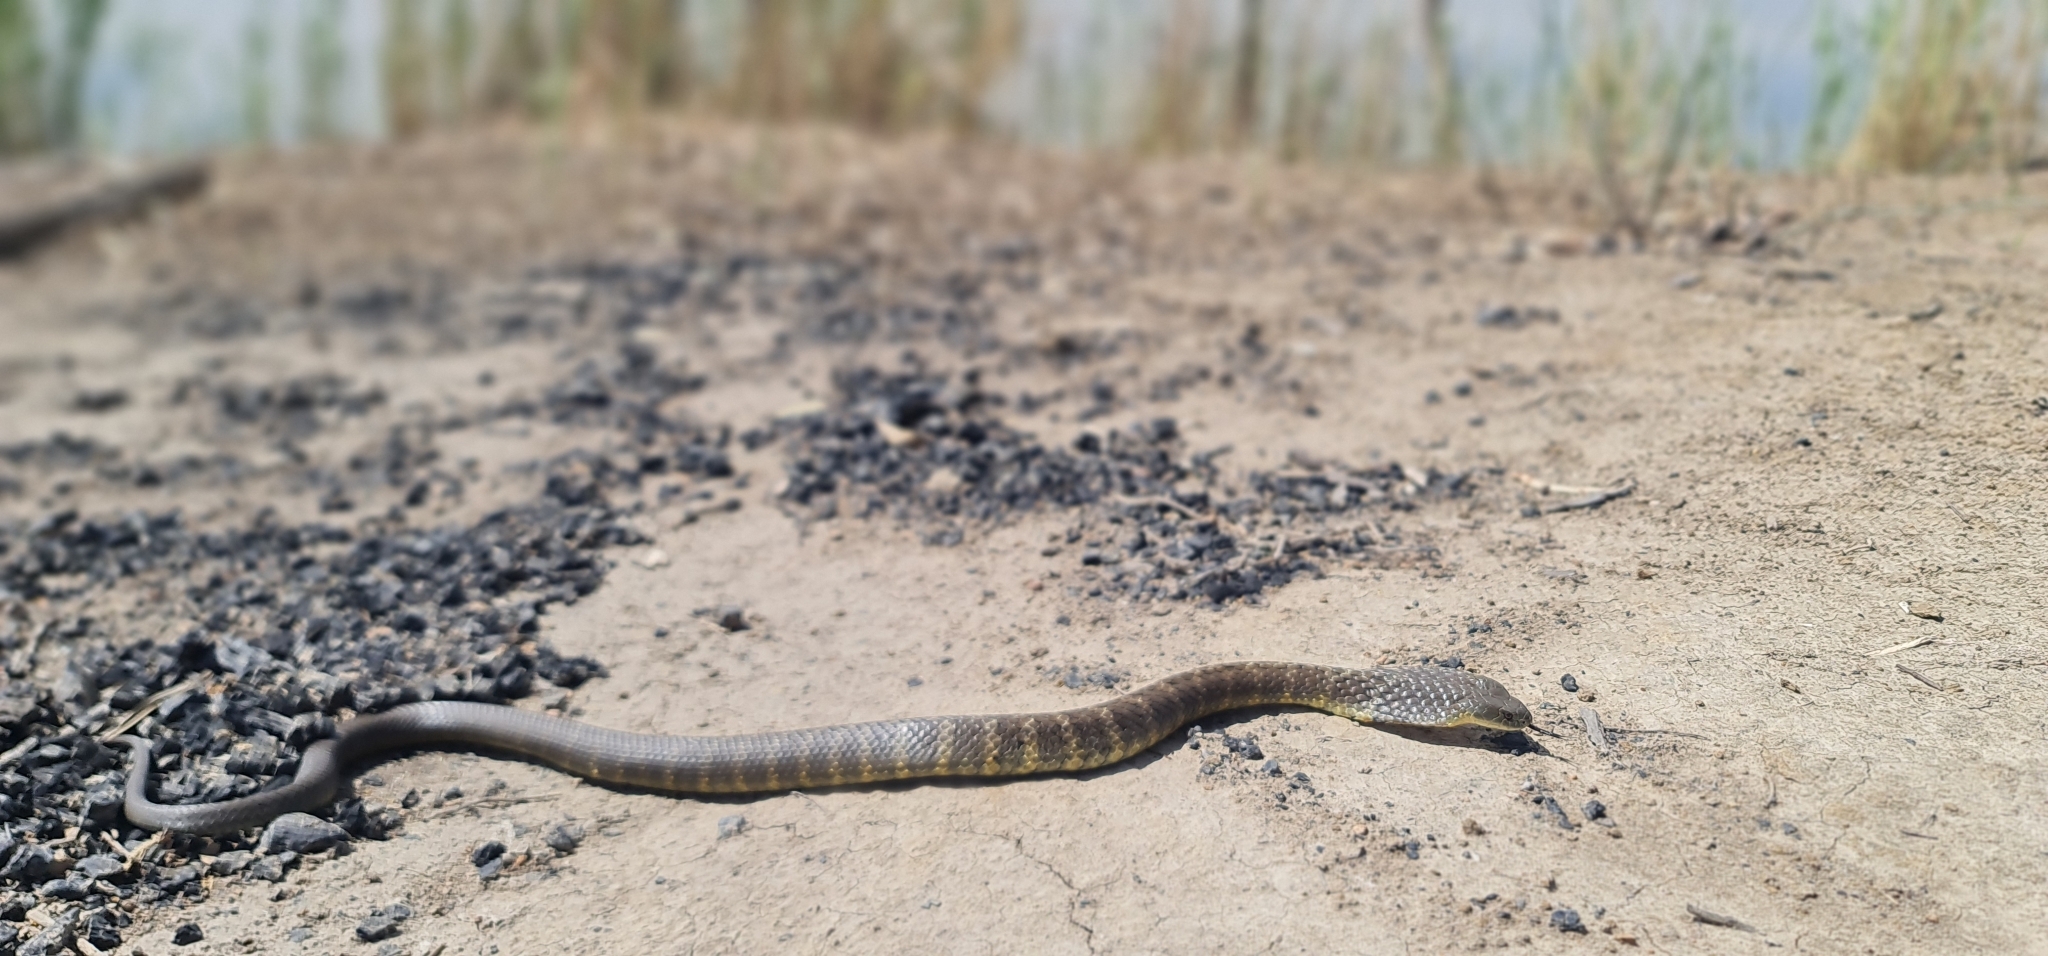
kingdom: Animalia
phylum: Chordata
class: Squamata
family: Elapidae
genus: Notechis
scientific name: Notechis scutatus
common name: Mainland tiger snake
